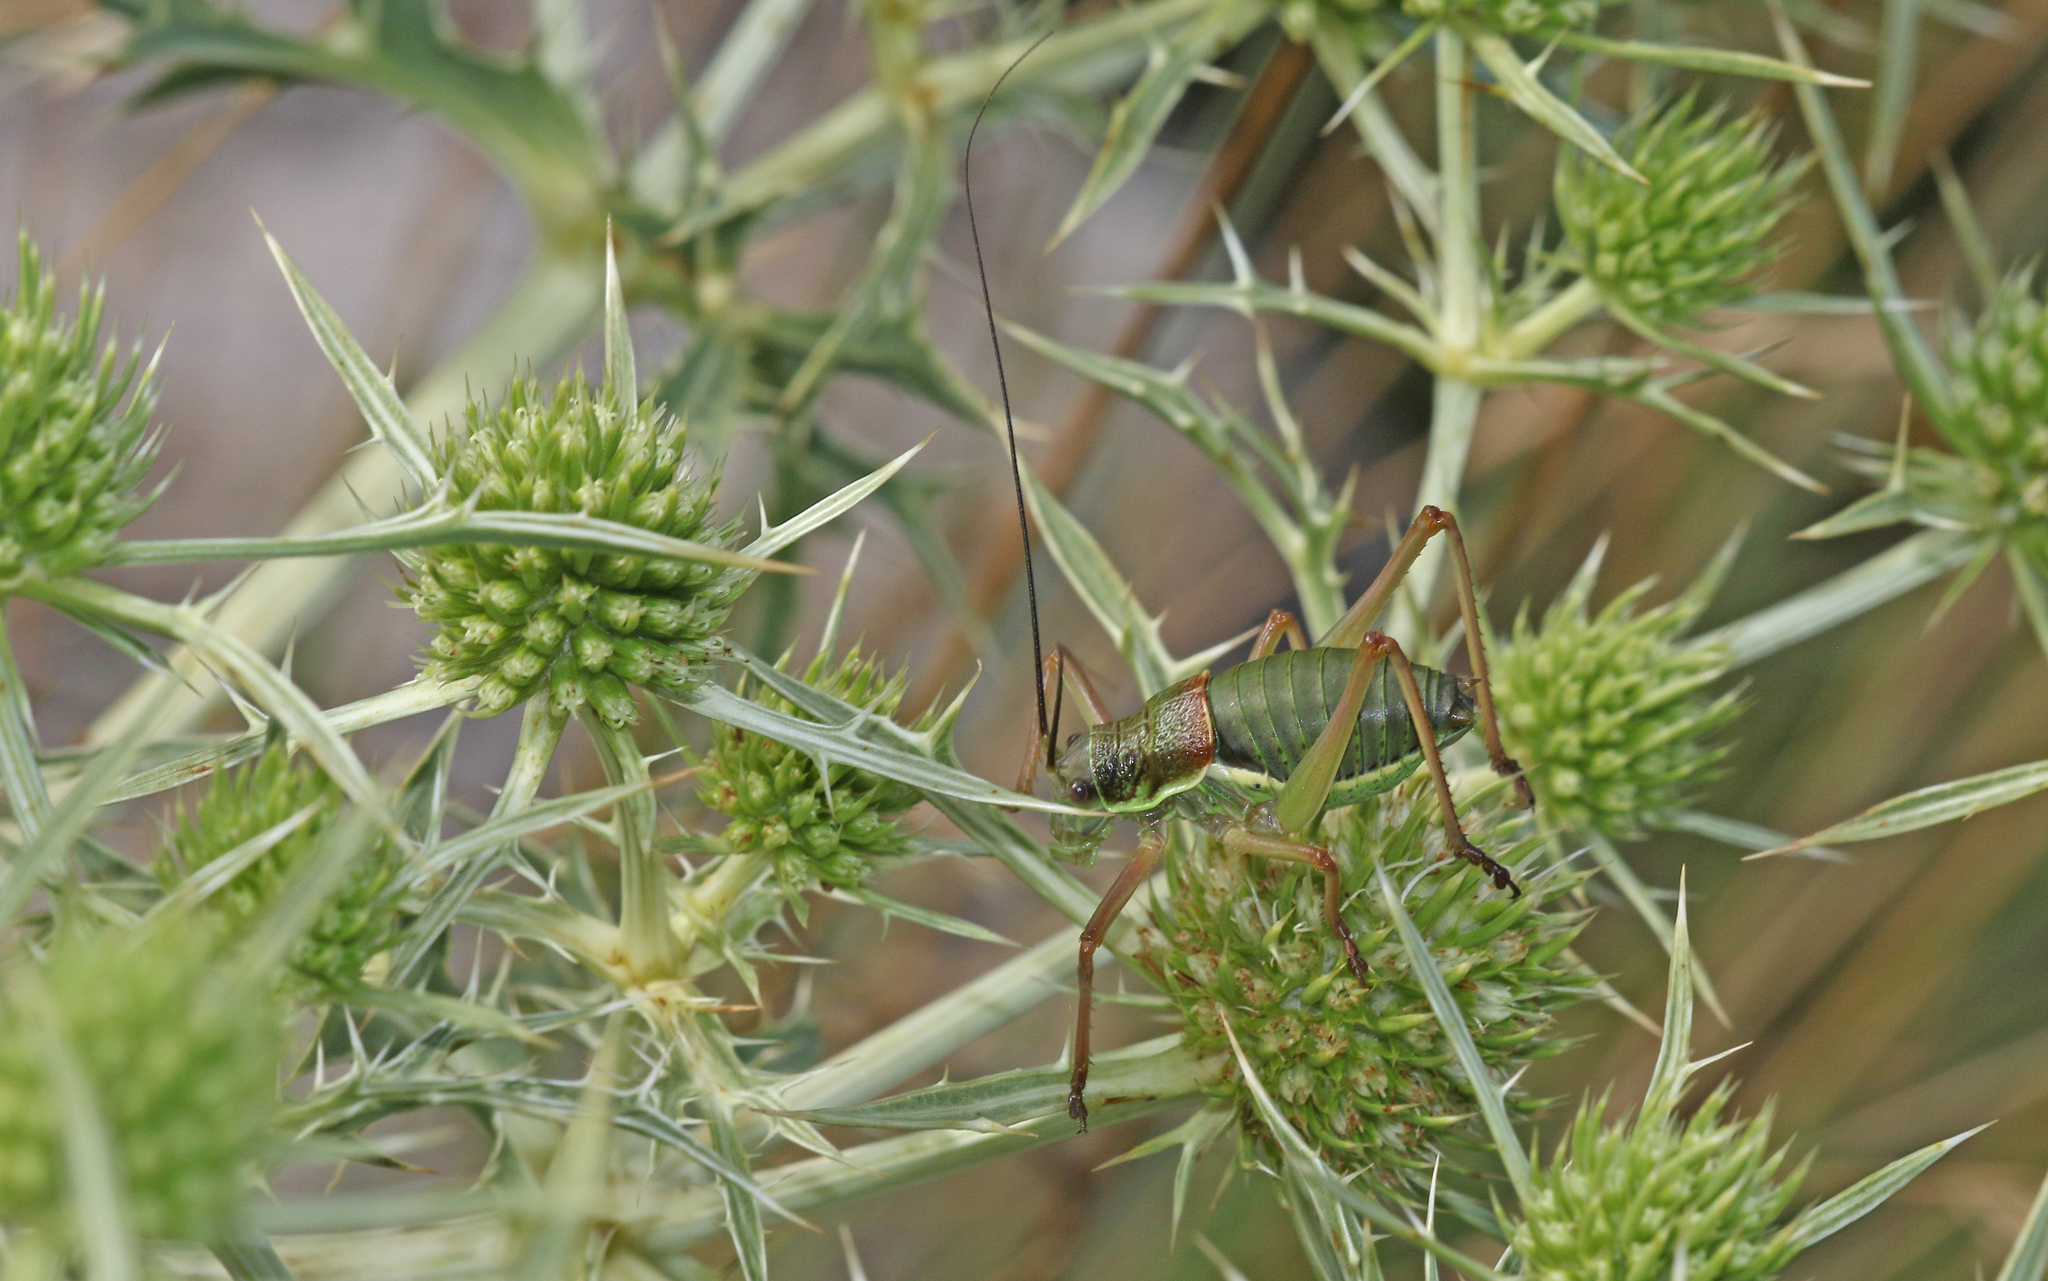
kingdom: Animalia
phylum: Arthropoda
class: Insecta
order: Orthoptera
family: Tettigoniidae
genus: Ephippiger
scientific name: Ephippiger diurnus
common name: Western saddle bush-cricket
